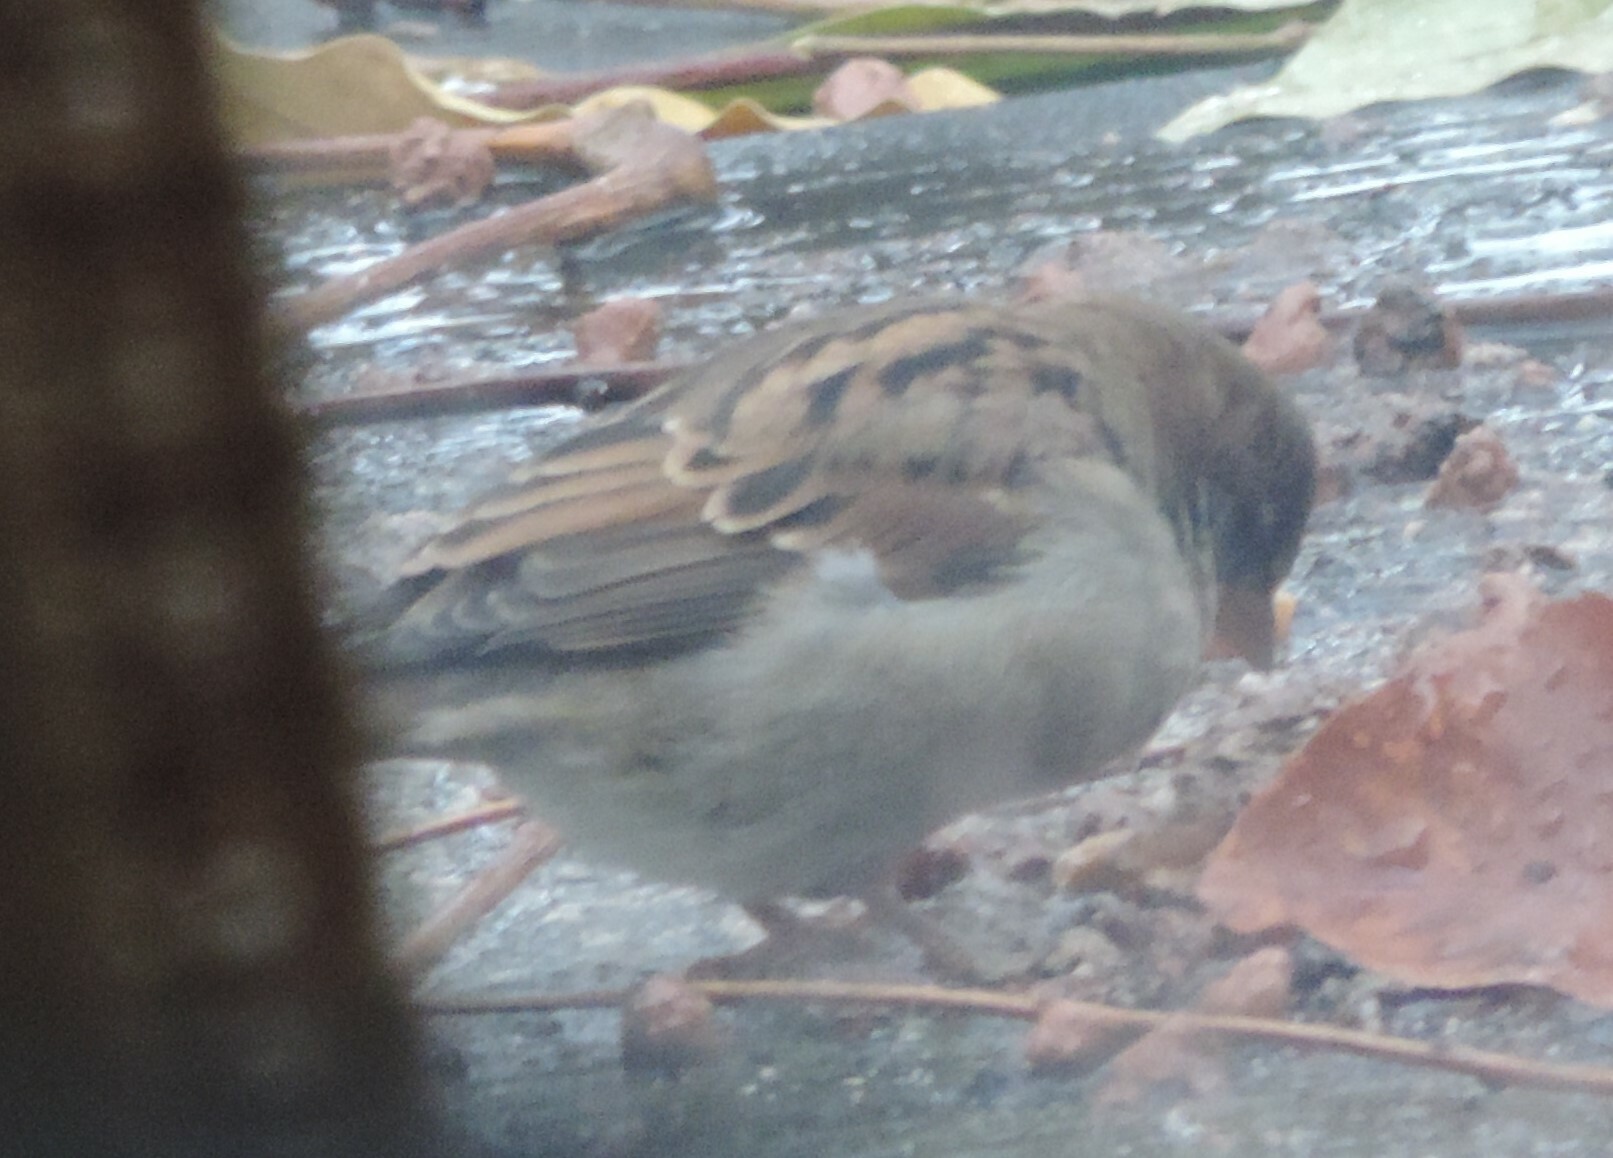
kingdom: Animalia
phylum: Chordata
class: Aves
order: Passeriformes
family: Passeridae
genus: Passer
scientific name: Passer domesticus
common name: House sparrow
